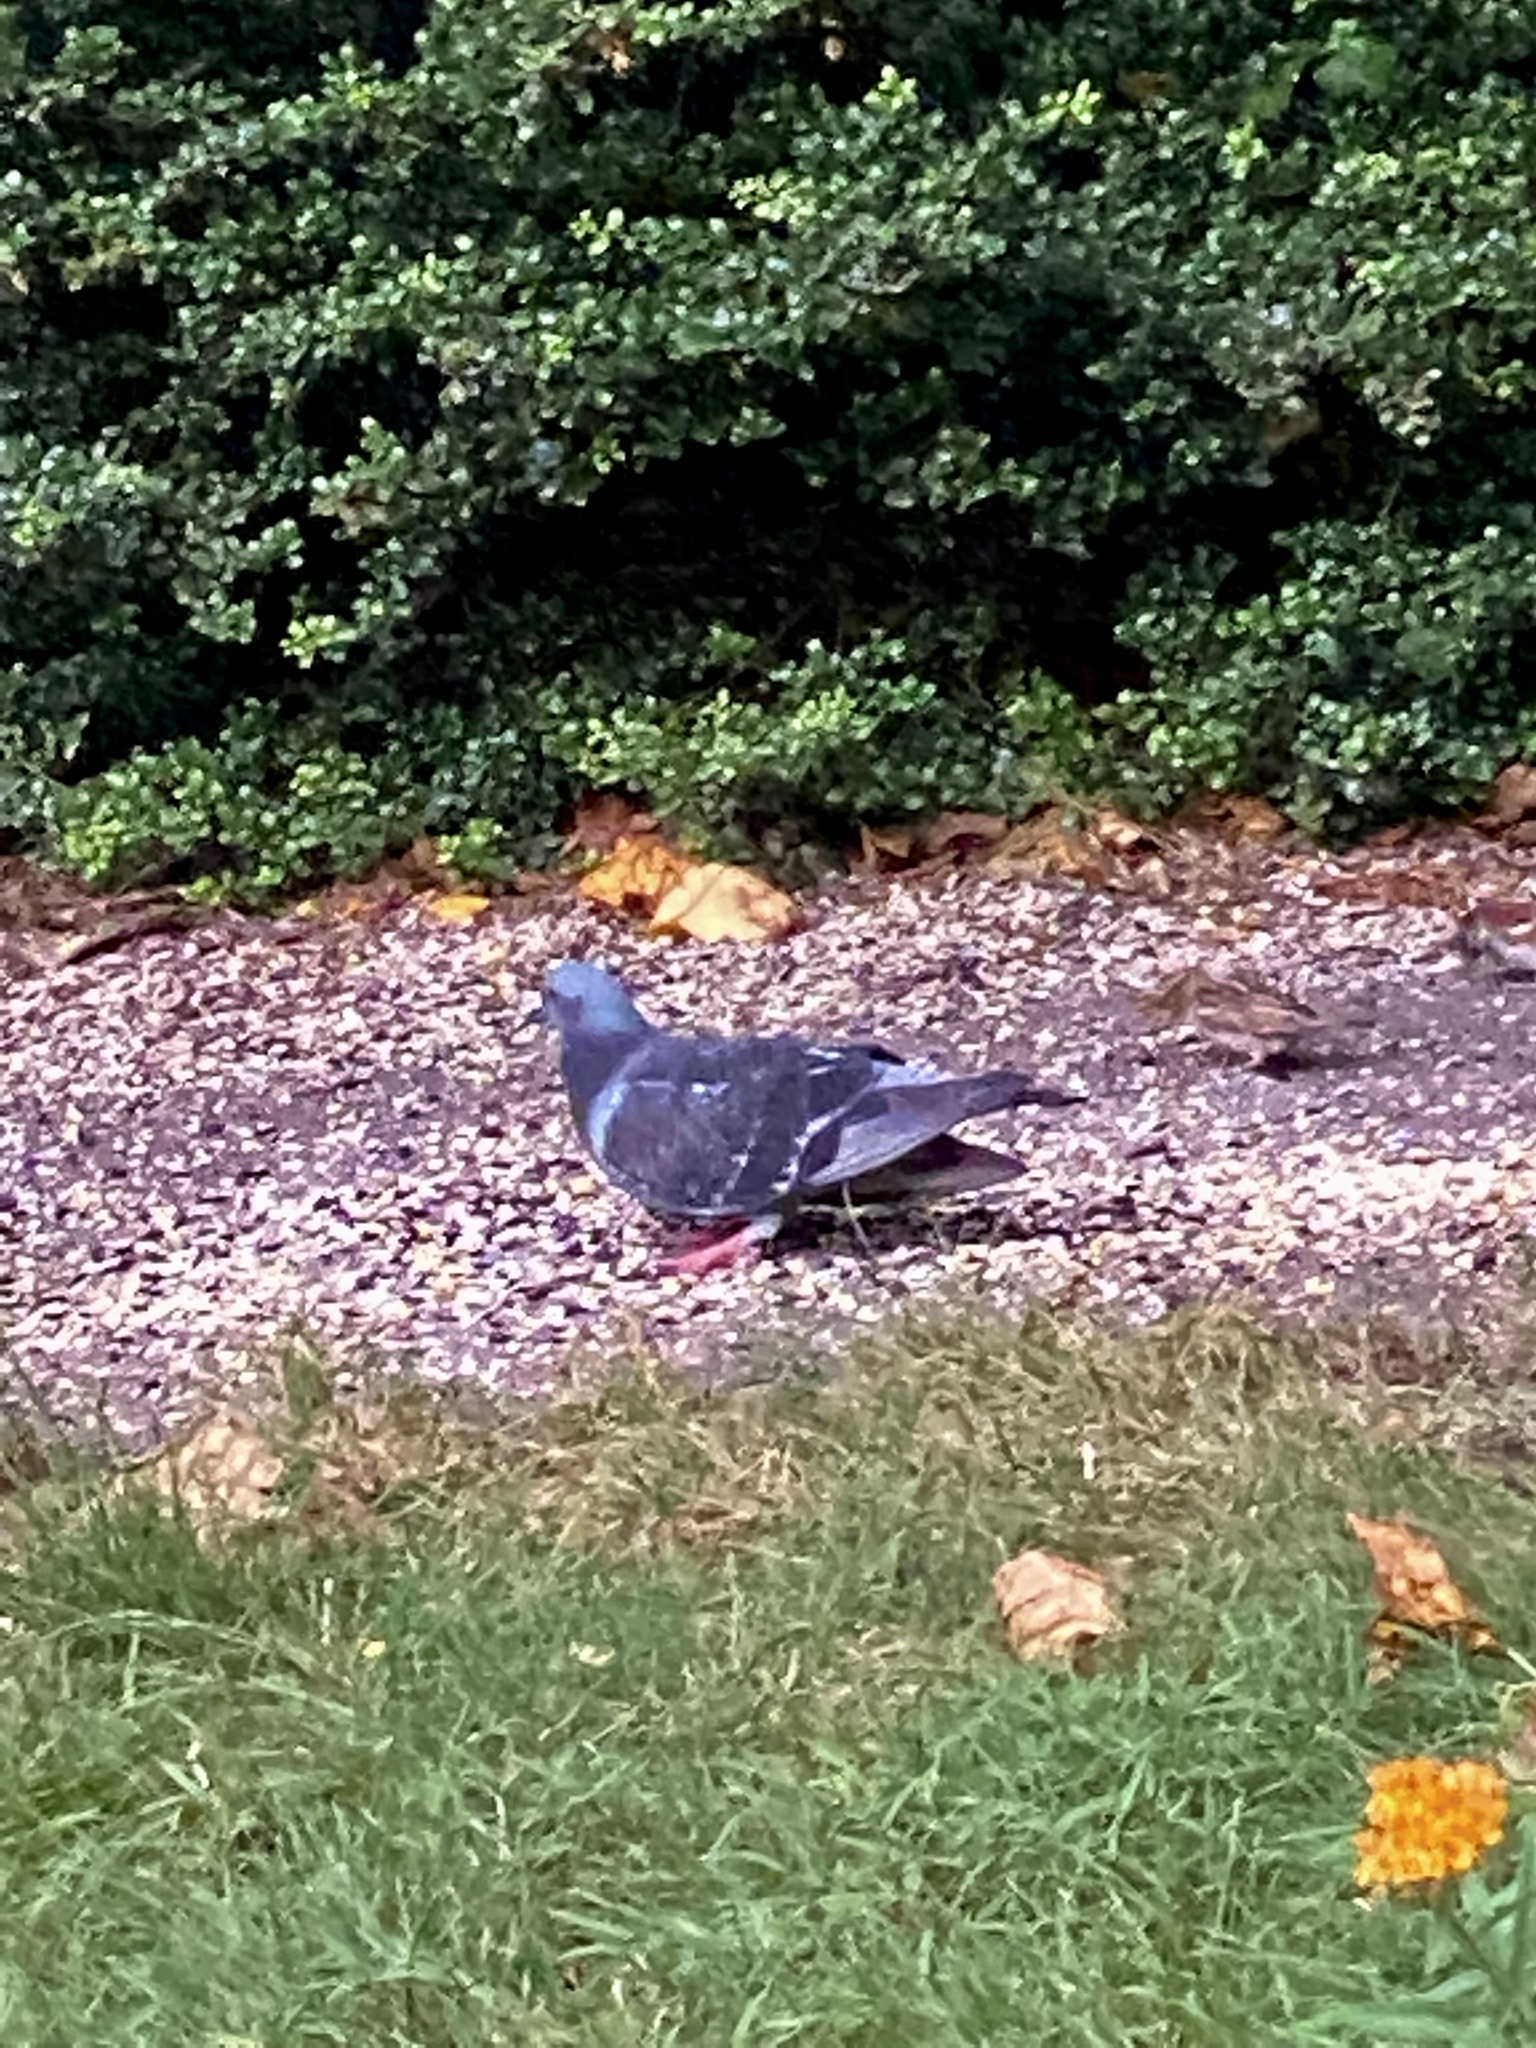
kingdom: Animalia
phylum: Chordata
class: Aves
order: Columbiformes
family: Columbidae
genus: Columba
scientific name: Columba livia
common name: Rock pigeon
